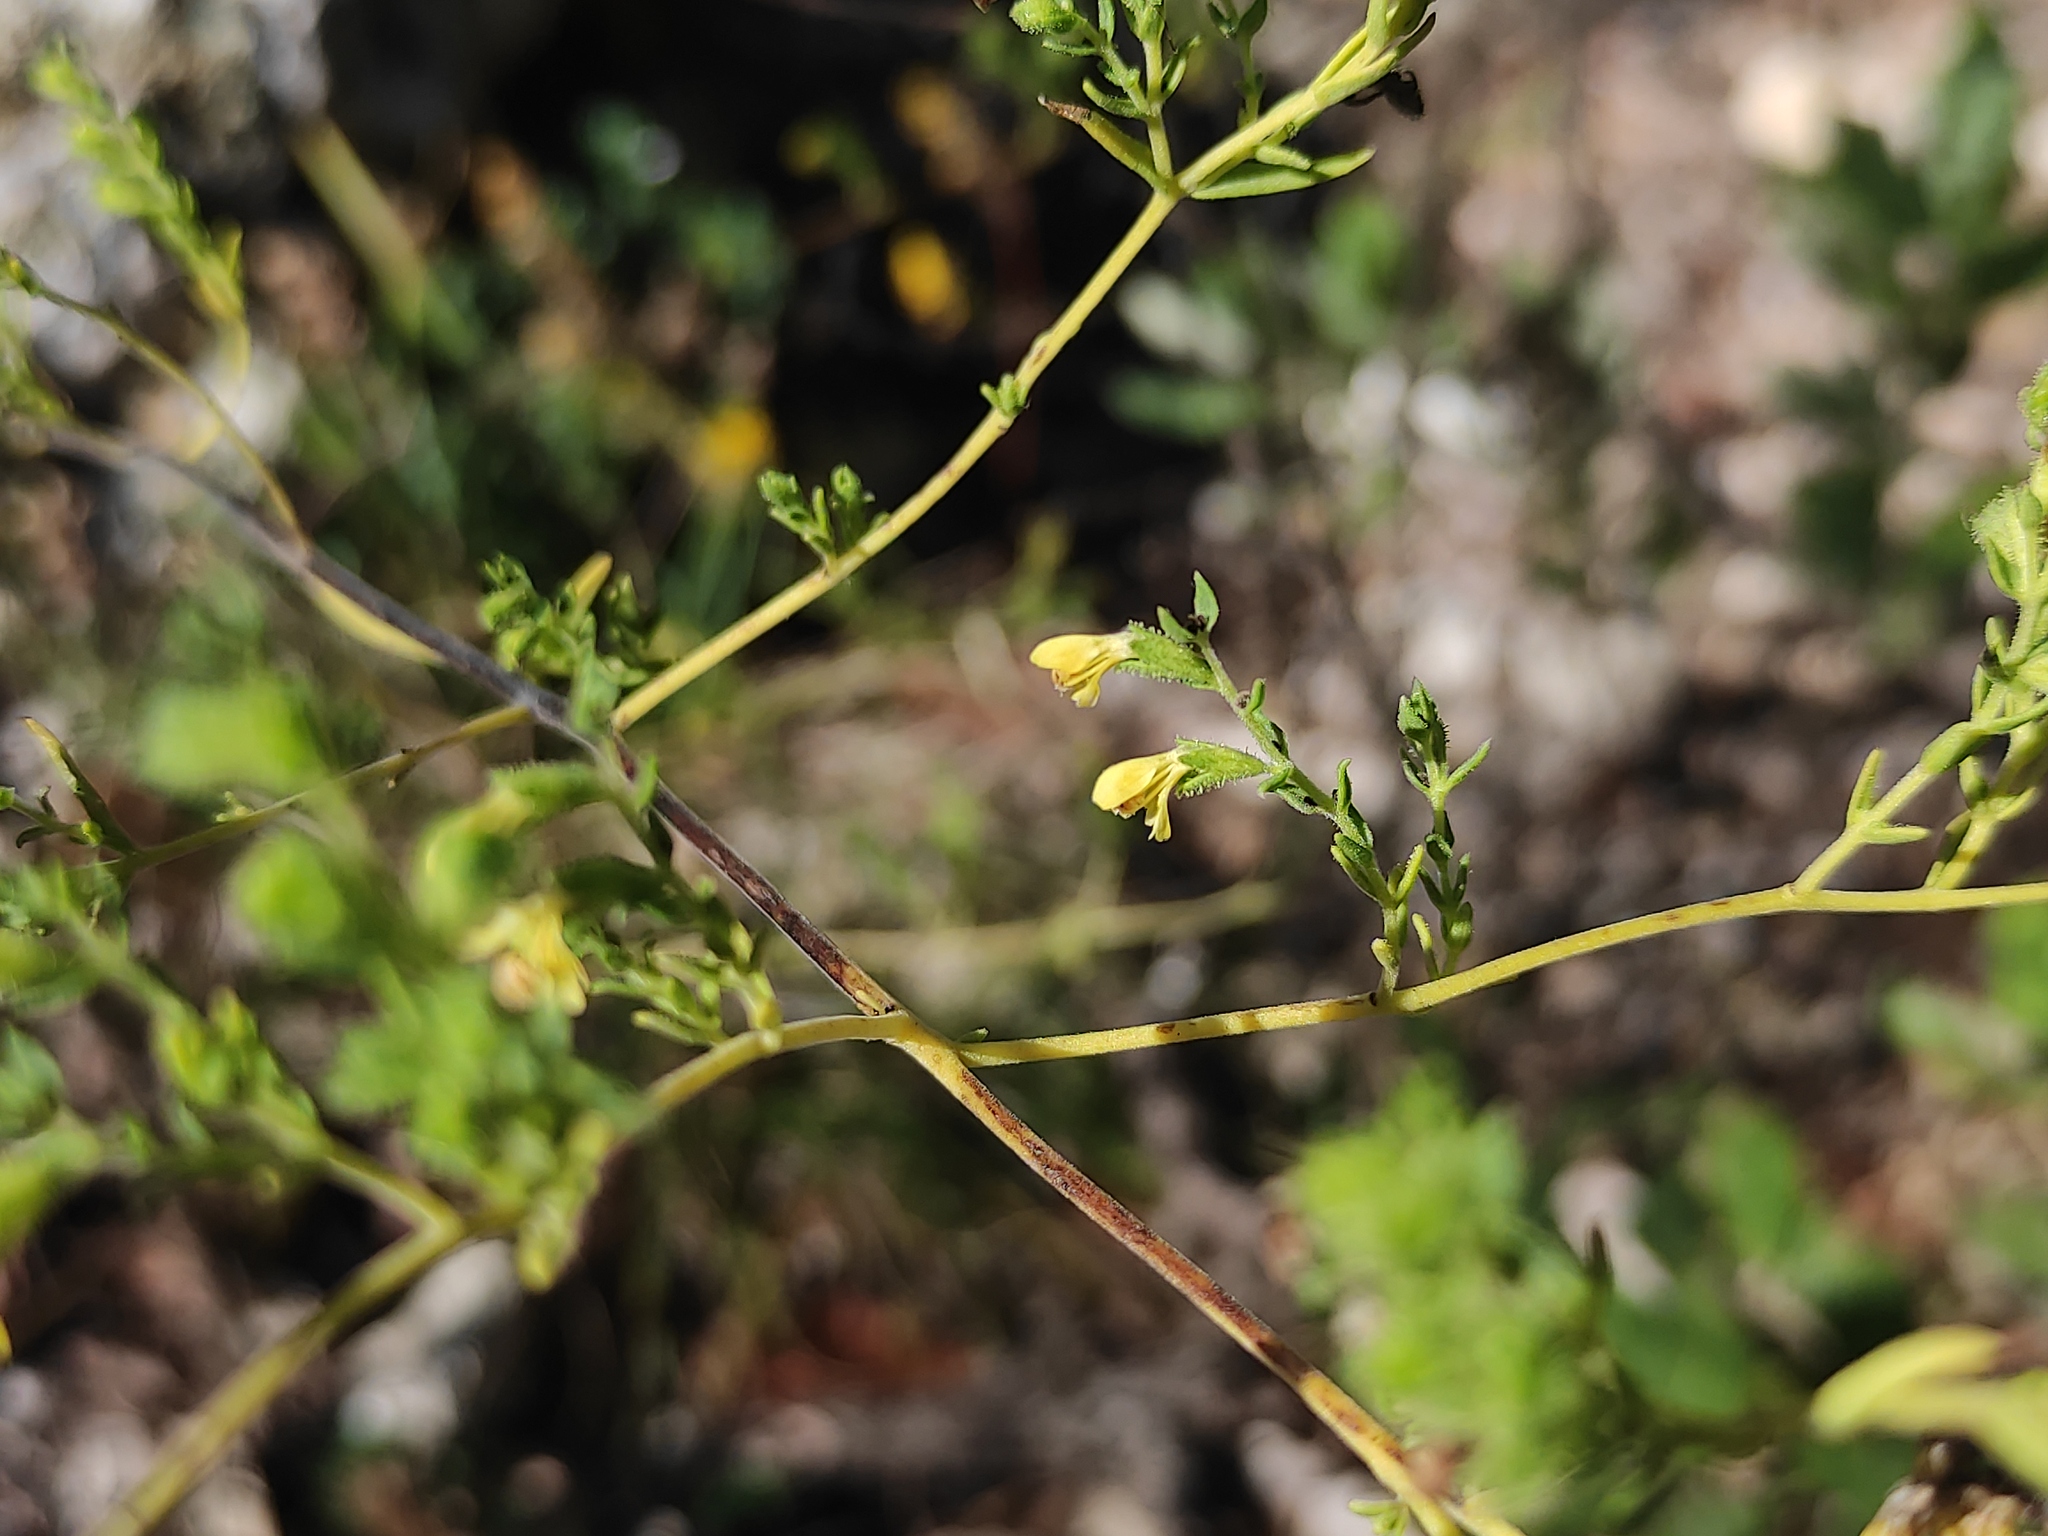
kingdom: Plantae
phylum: Tracheophyta
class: Magnoliopsida
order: Lamiales
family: Orobanchaceae
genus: Odontites
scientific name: Odontites viscosus
